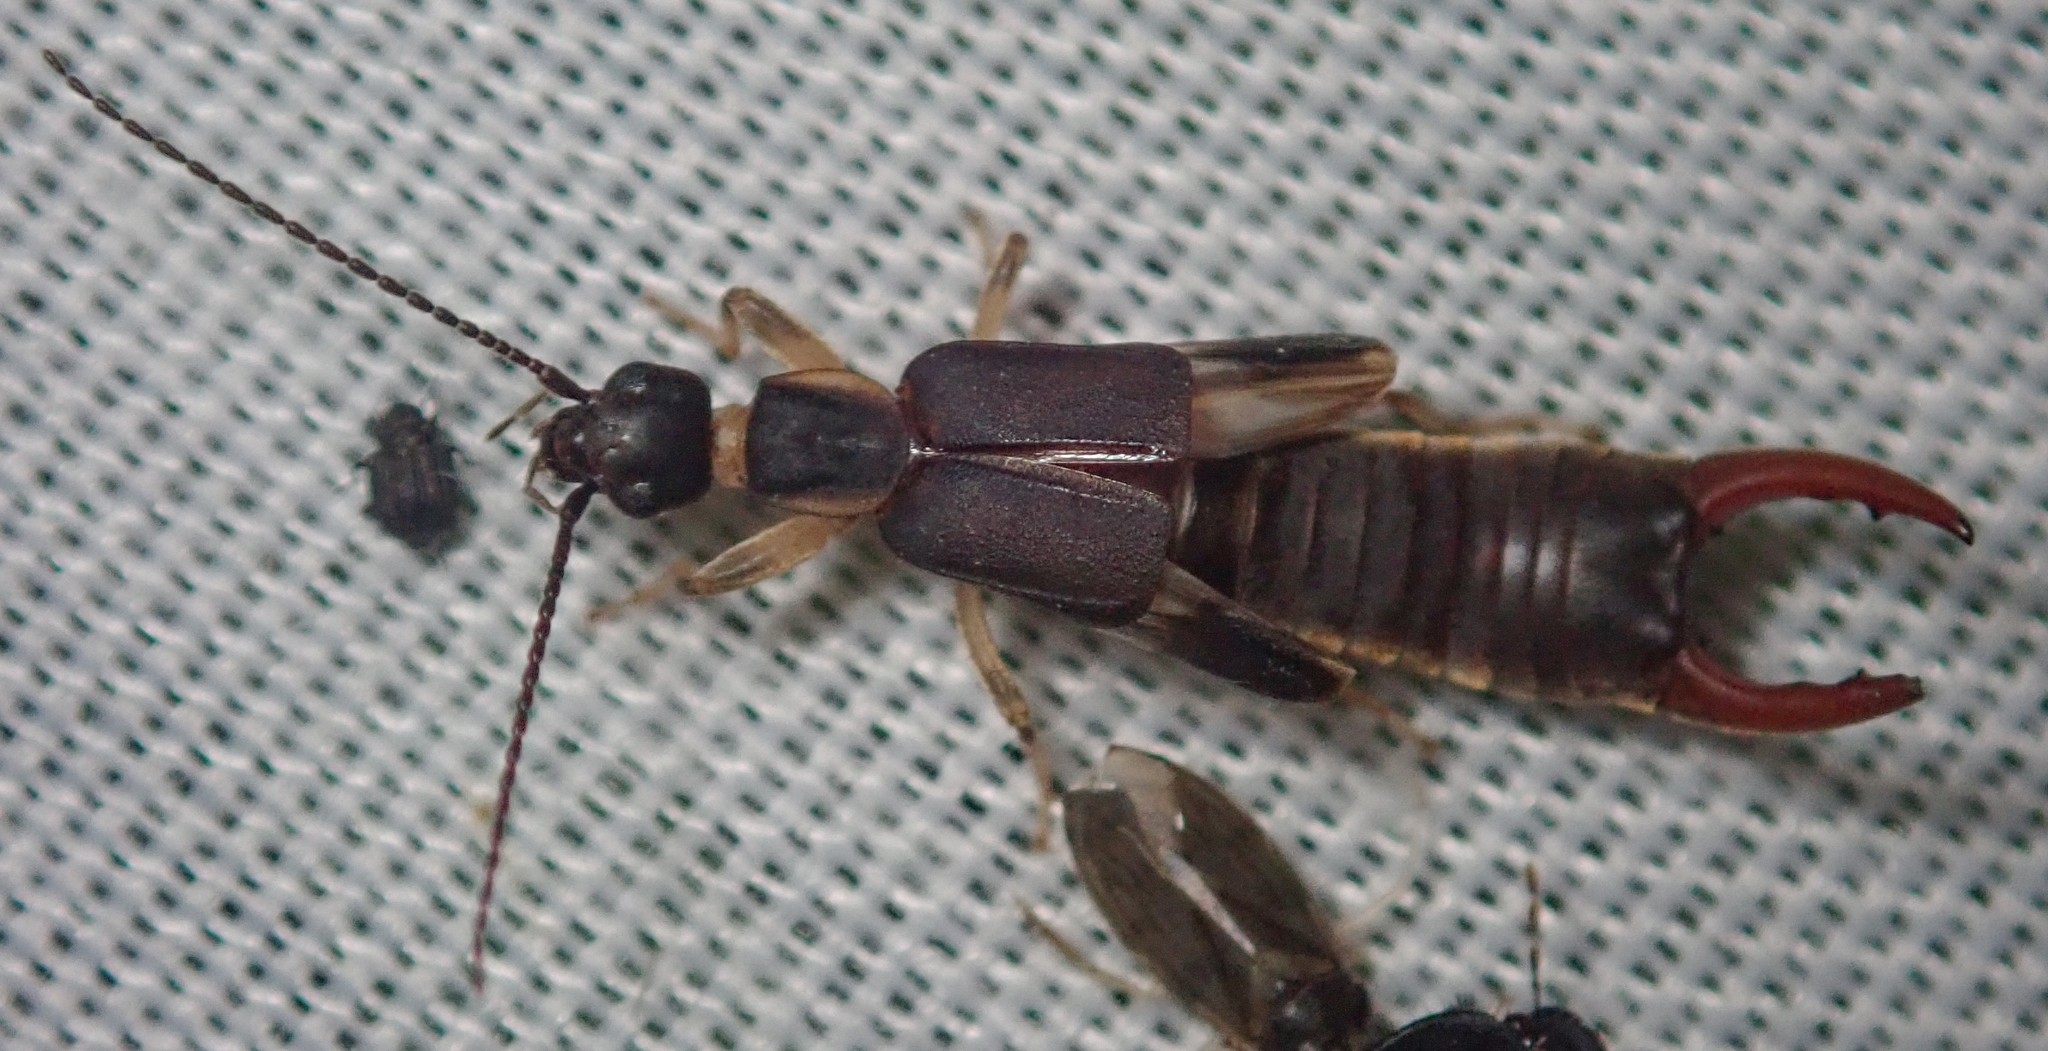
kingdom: Animalia
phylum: Arthropoda
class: Insecta
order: Dermaptera
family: Labiduridae
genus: Nala
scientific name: Nala lividipes
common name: Earwig
